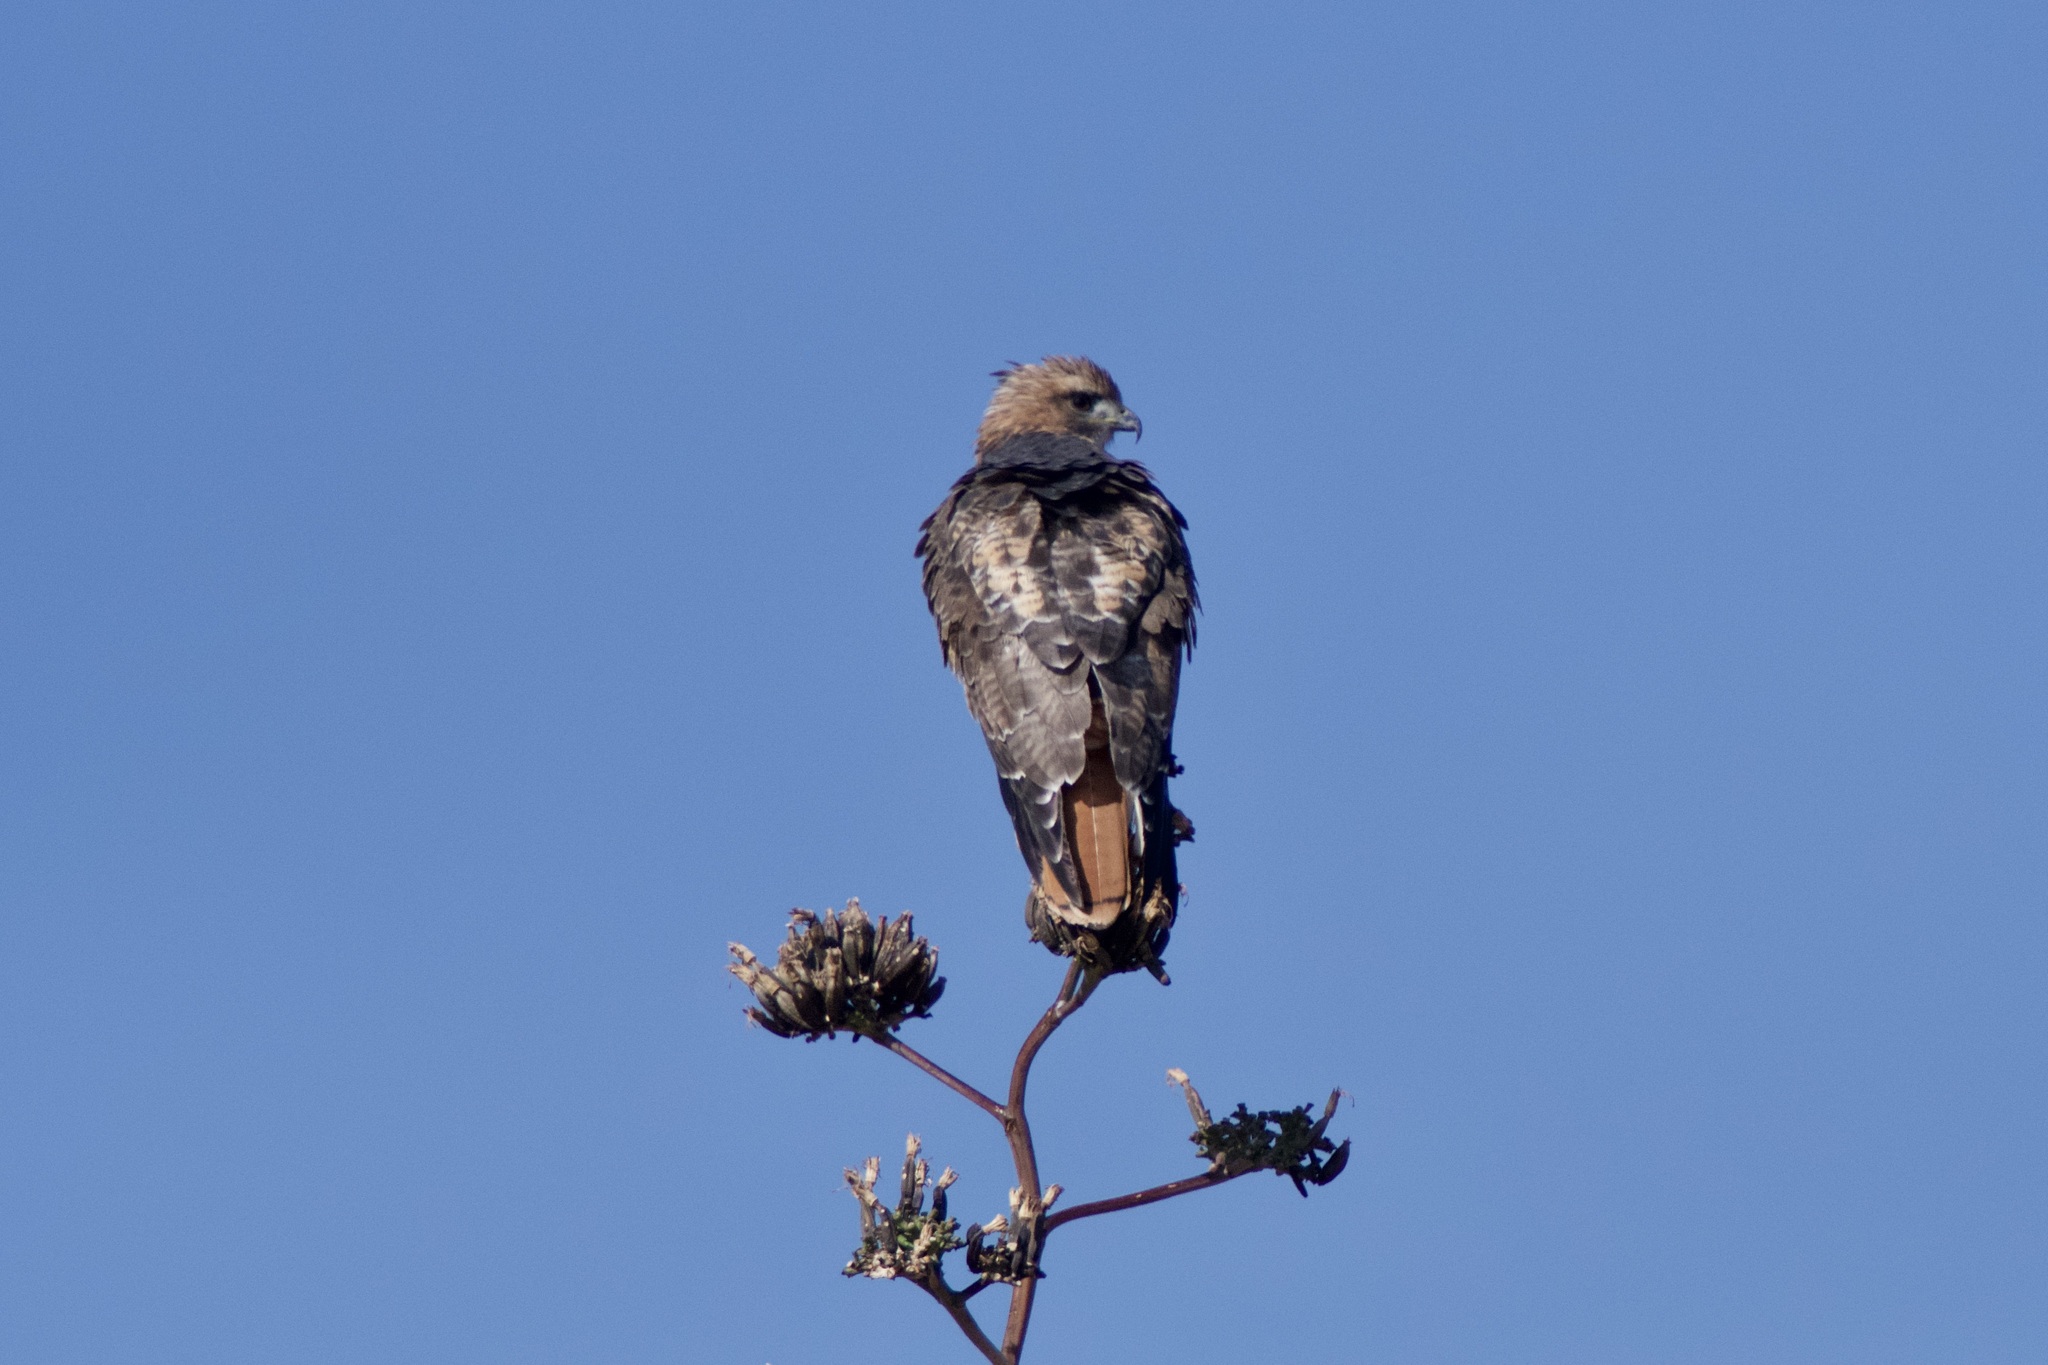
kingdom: Animalia
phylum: Chordata
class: Aves
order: Accipitriformes
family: Accipitridae
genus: Buteo
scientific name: Buteo jamaicensis
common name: Red-tailed hawk
